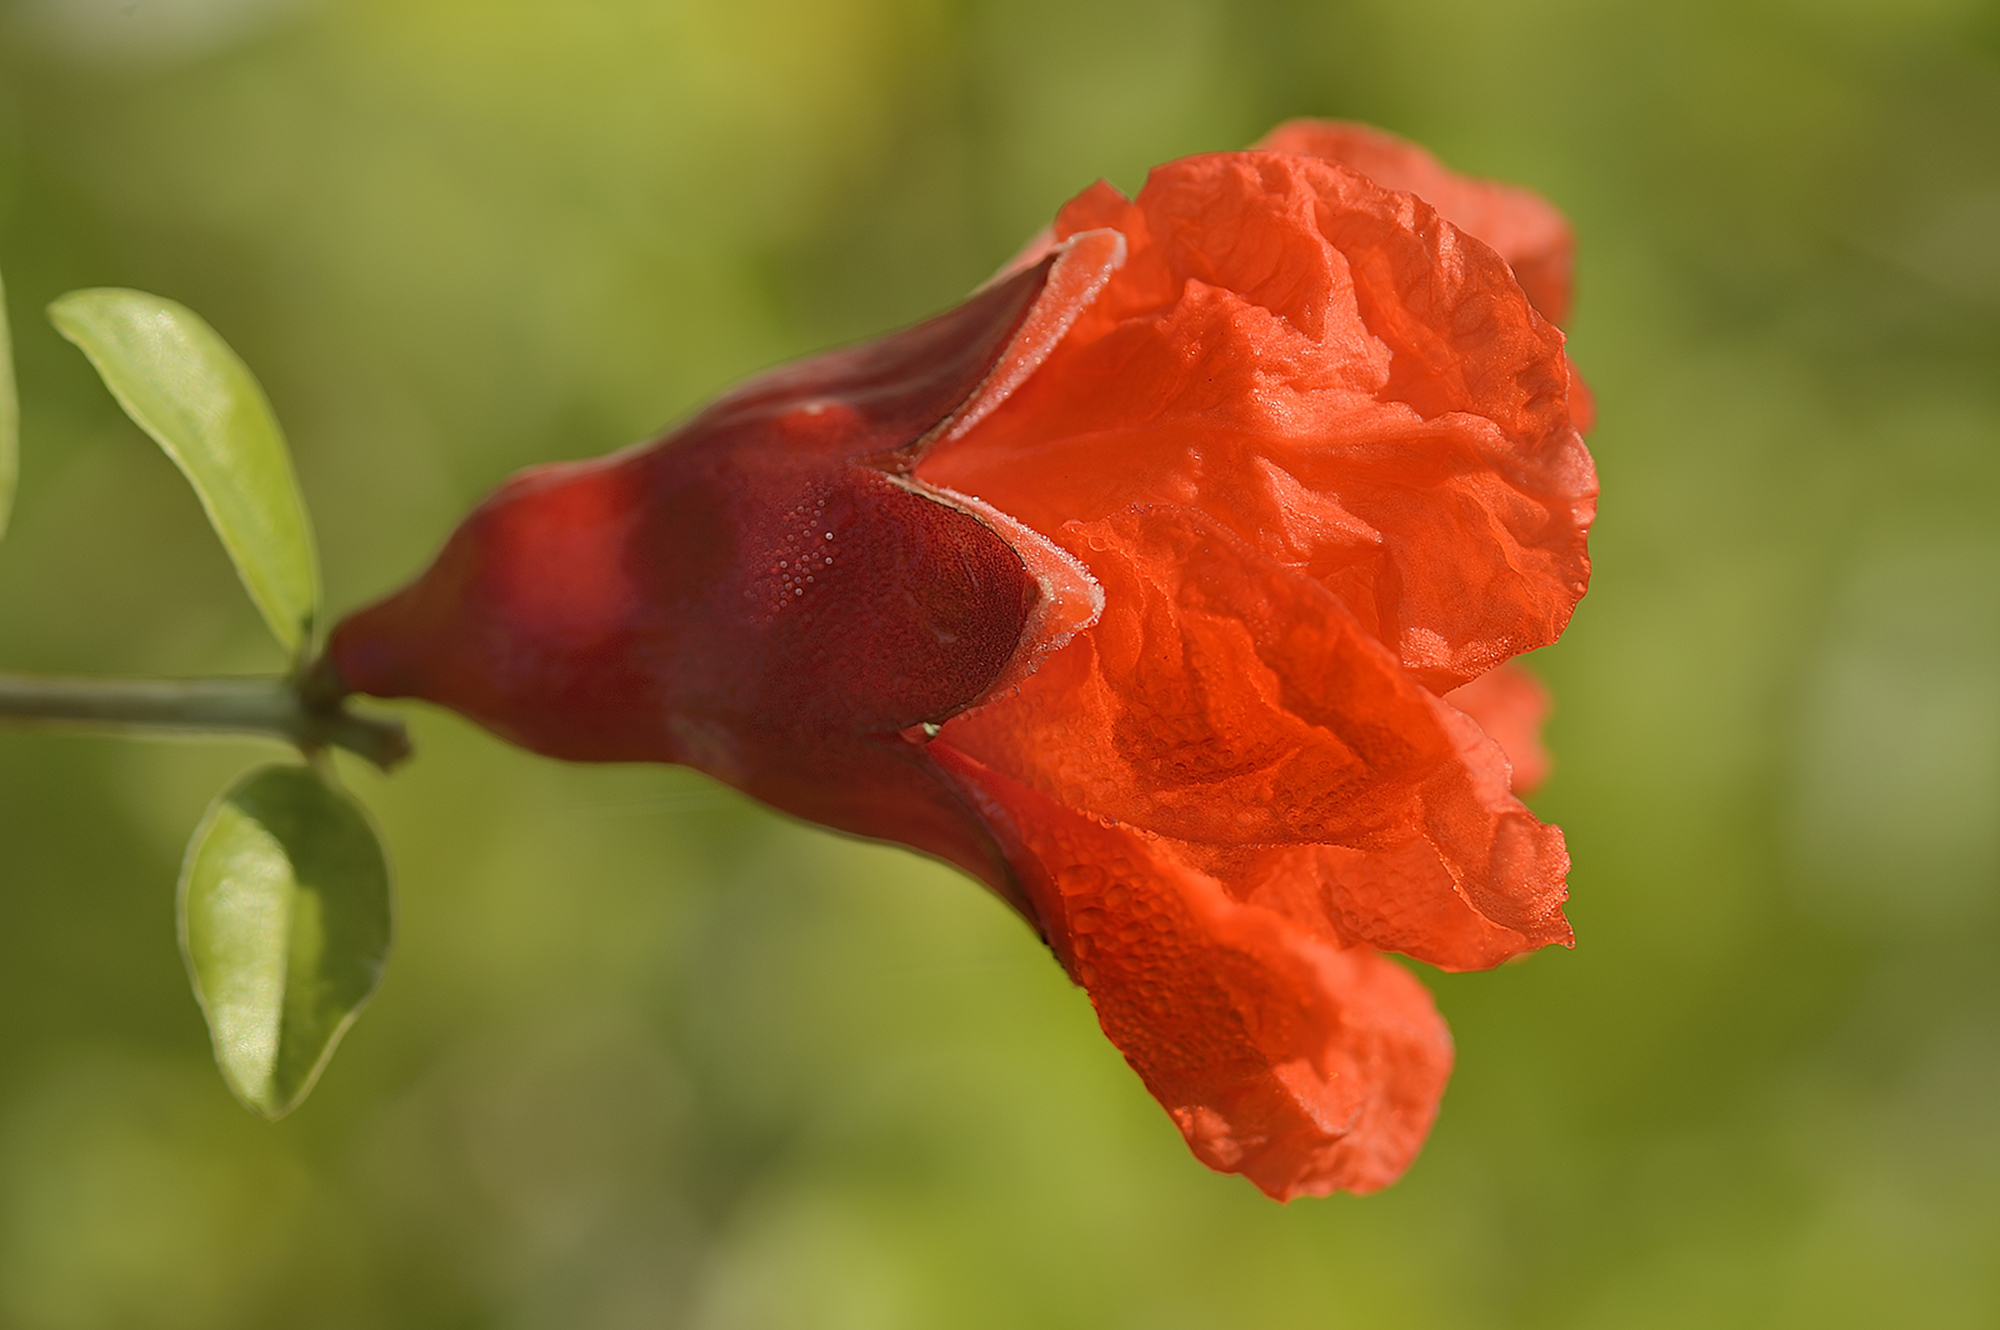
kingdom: Plantae
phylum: Tracheophyta
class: Magnoliopsida
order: Myrtales
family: Lythraceae
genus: Punica
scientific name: Punica granatum
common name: Pomegranate
